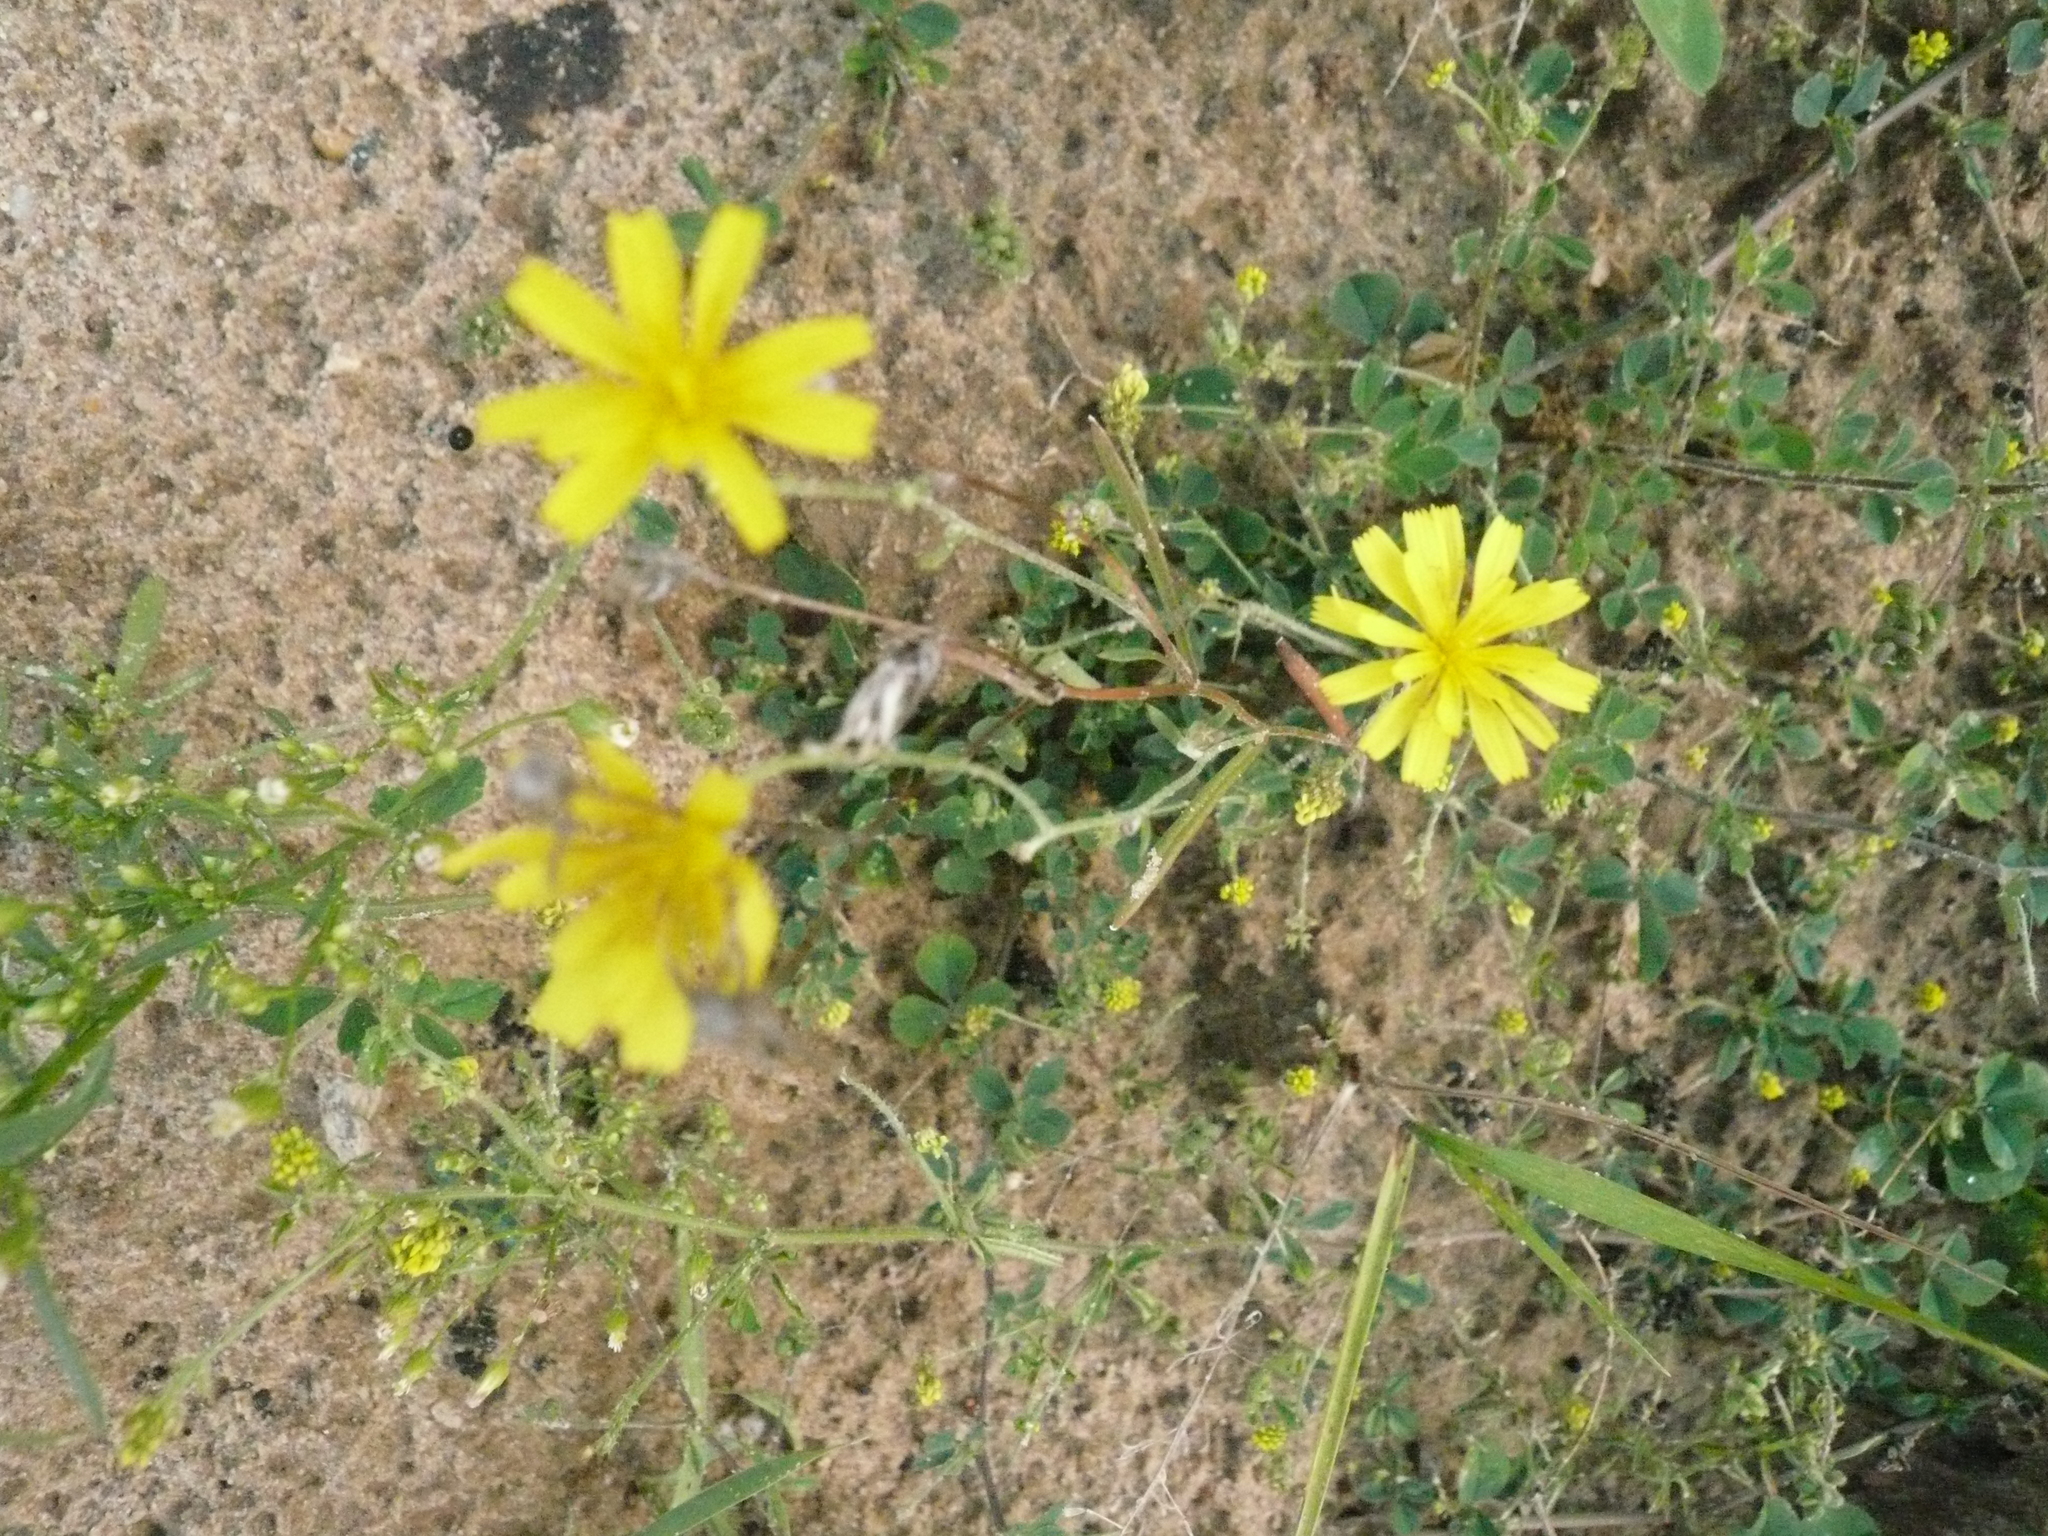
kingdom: Plantae
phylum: Tracheophyta
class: Magnoliopsida
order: Asterales
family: Asteraceae
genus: Crepis
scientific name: Crepis tectorum
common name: Narrow-leaved hawk's-beard
